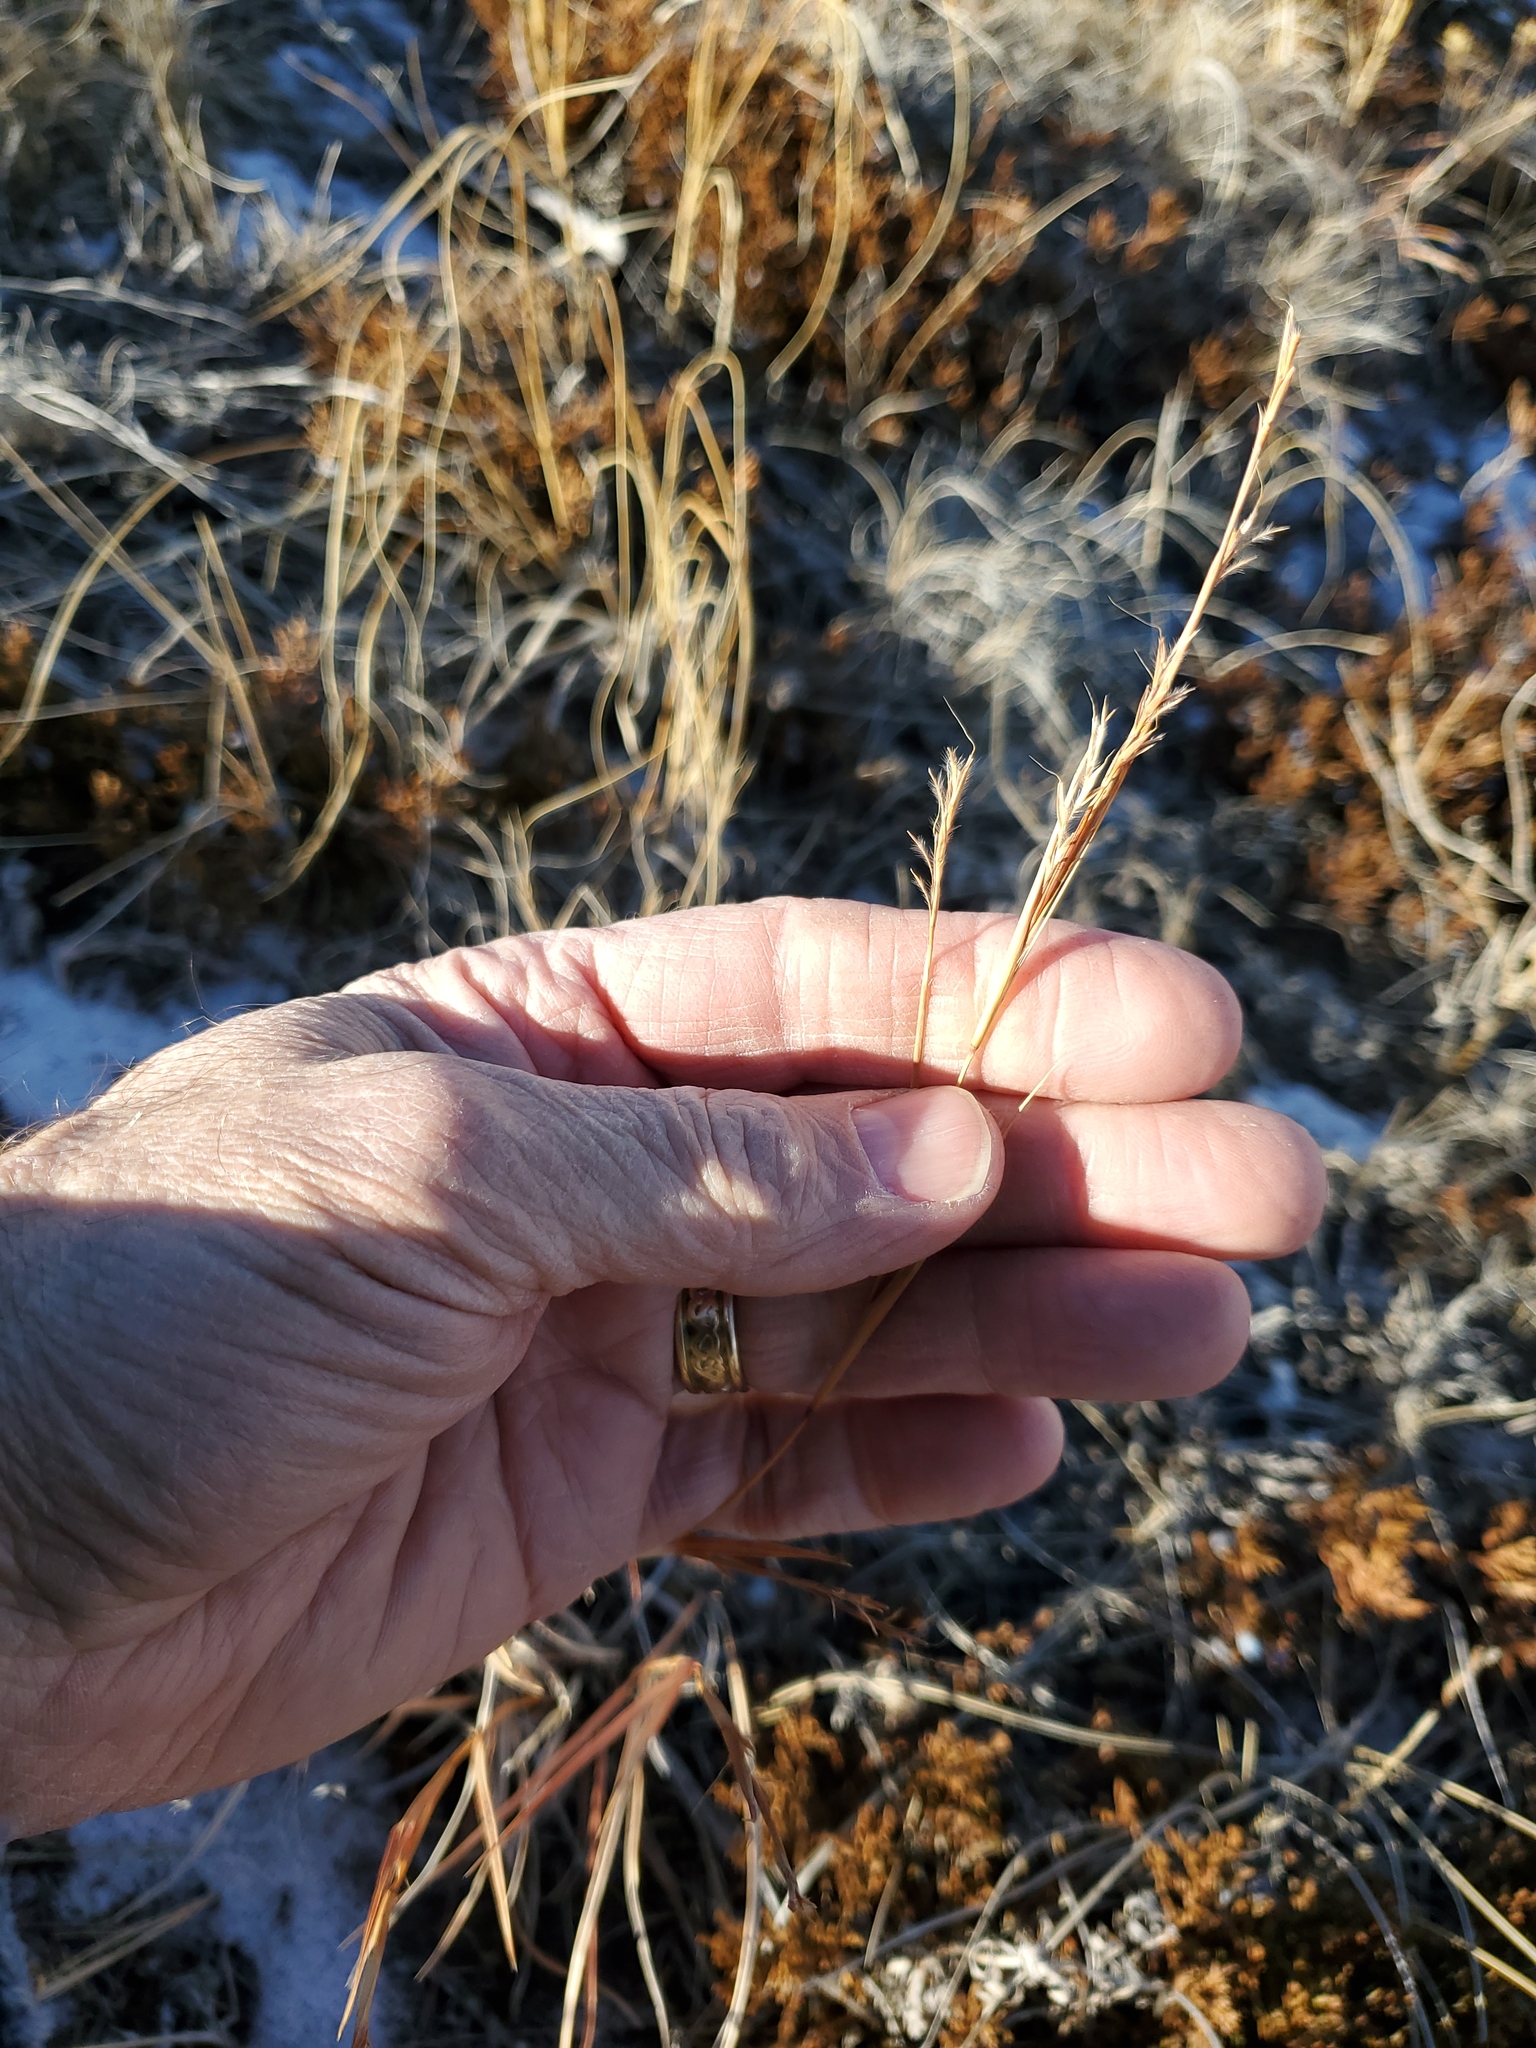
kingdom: Plantae
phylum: Tracheophyta
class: Liliopsida
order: Poales
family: Poaceae
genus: Schizachyrium
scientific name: Schizachyrium scoparium
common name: Little bluestem
